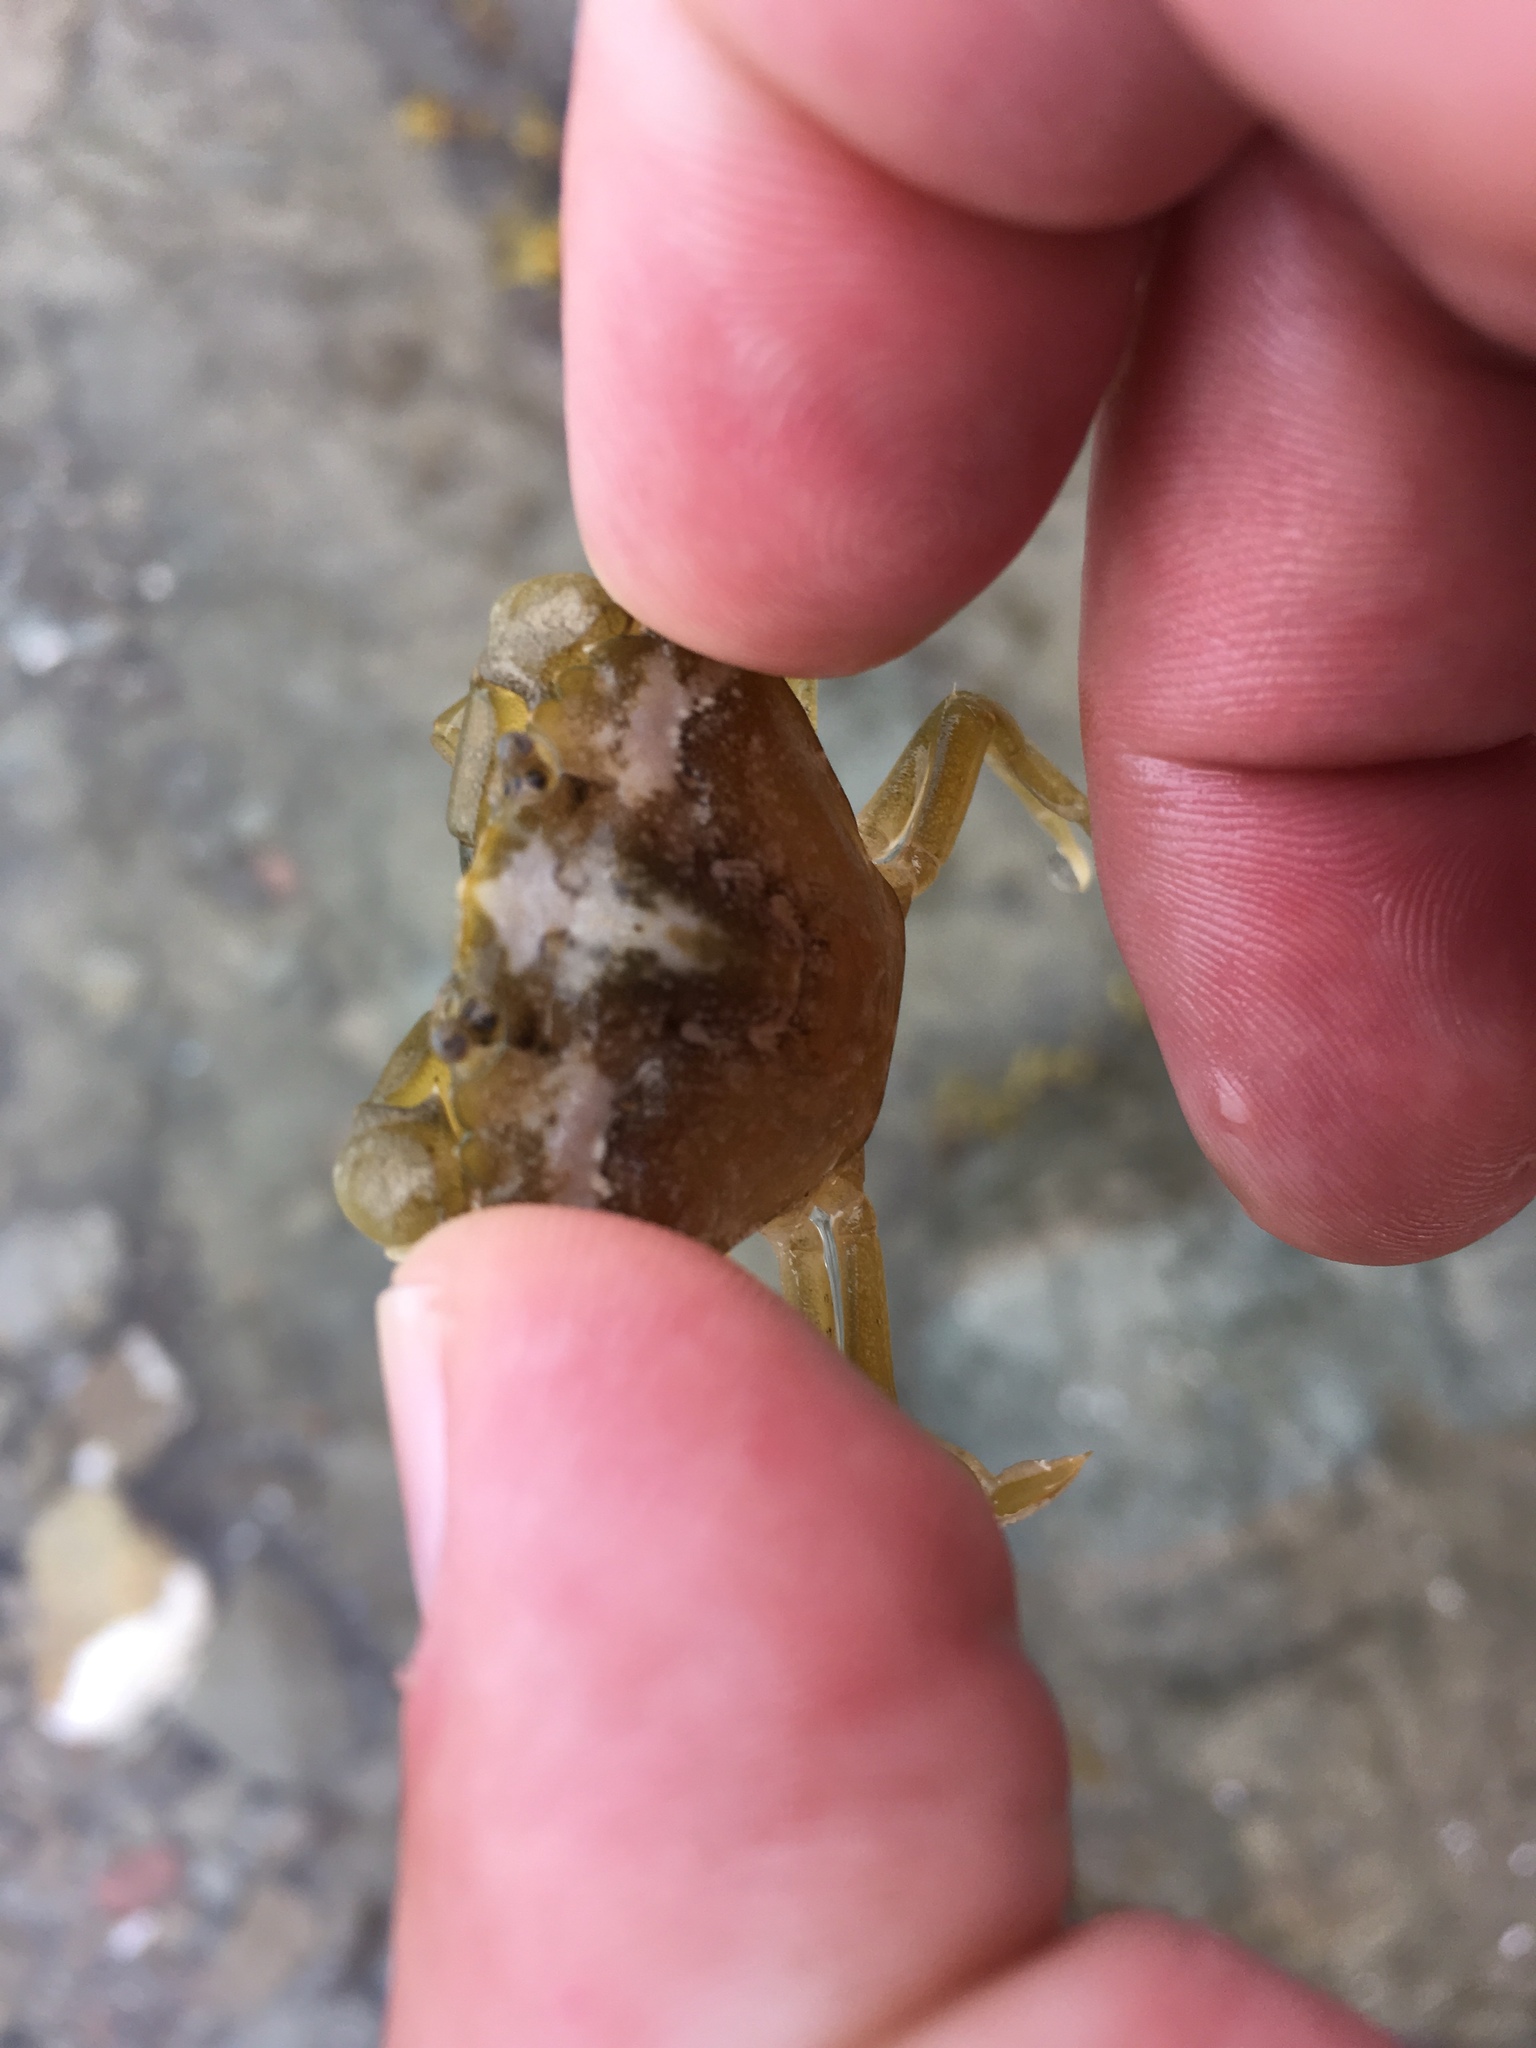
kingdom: Animalia
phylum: Arthropoda
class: Malacostraca
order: Decapoda
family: Carcinidae
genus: Carcinus
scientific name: Carcinus maenas
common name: European green crab
